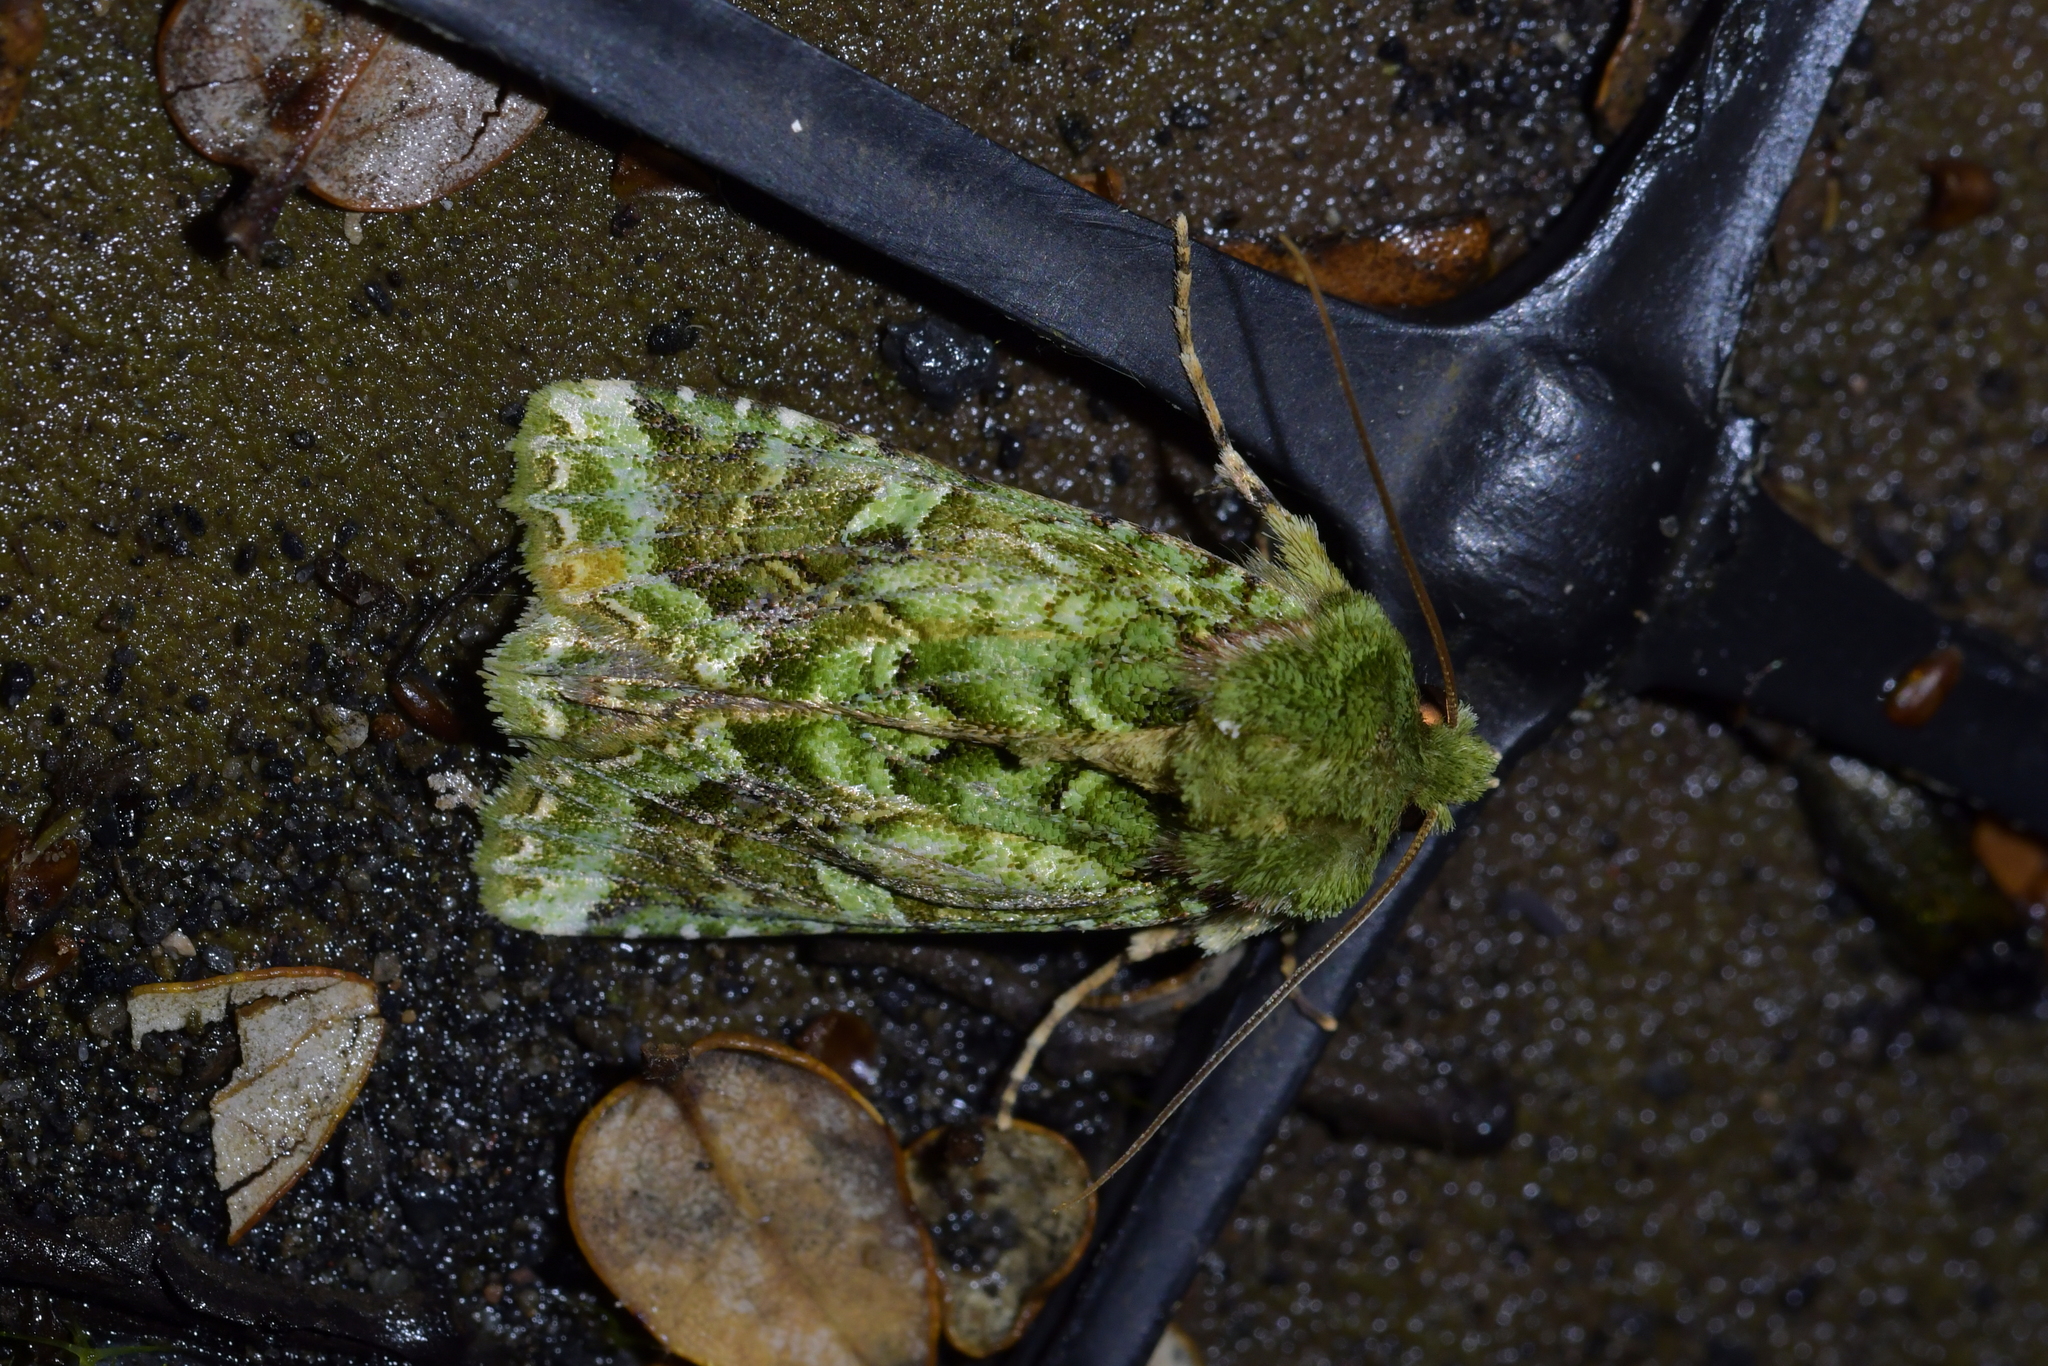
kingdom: Animalia
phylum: Arthropoda
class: Insecta
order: Lepidoptera
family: Noctuidae
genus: Feredayia
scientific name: Feredayia grammosa
